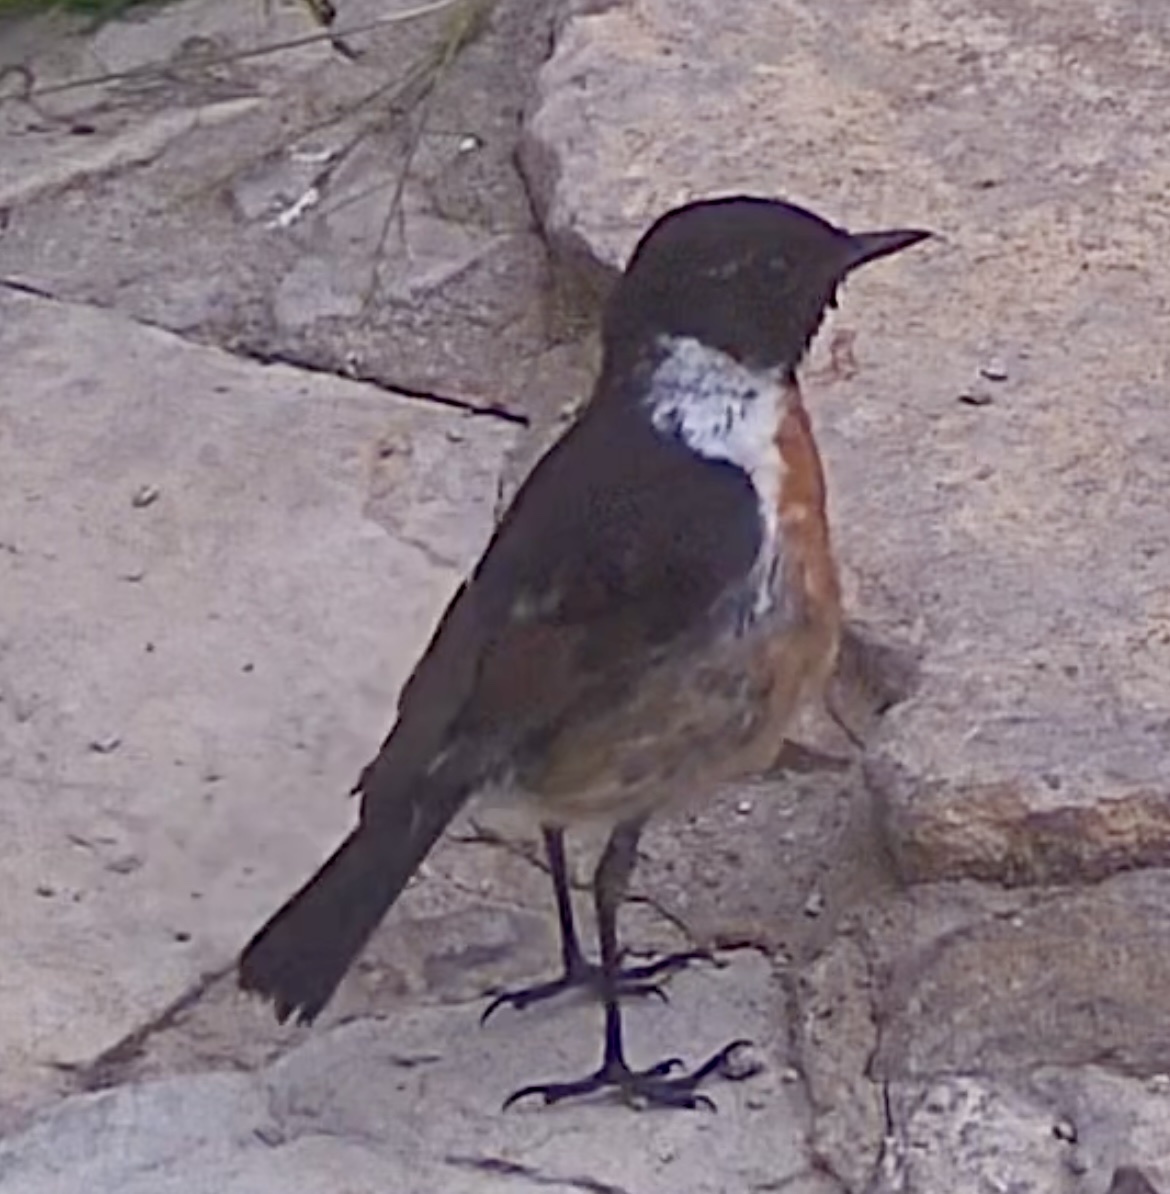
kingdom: Animalia
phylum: Chordata
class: Aves
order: Passeriformes
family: Muscicapidae
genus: Saxicola
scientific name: Saxicola rubicola
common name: European stonechat
